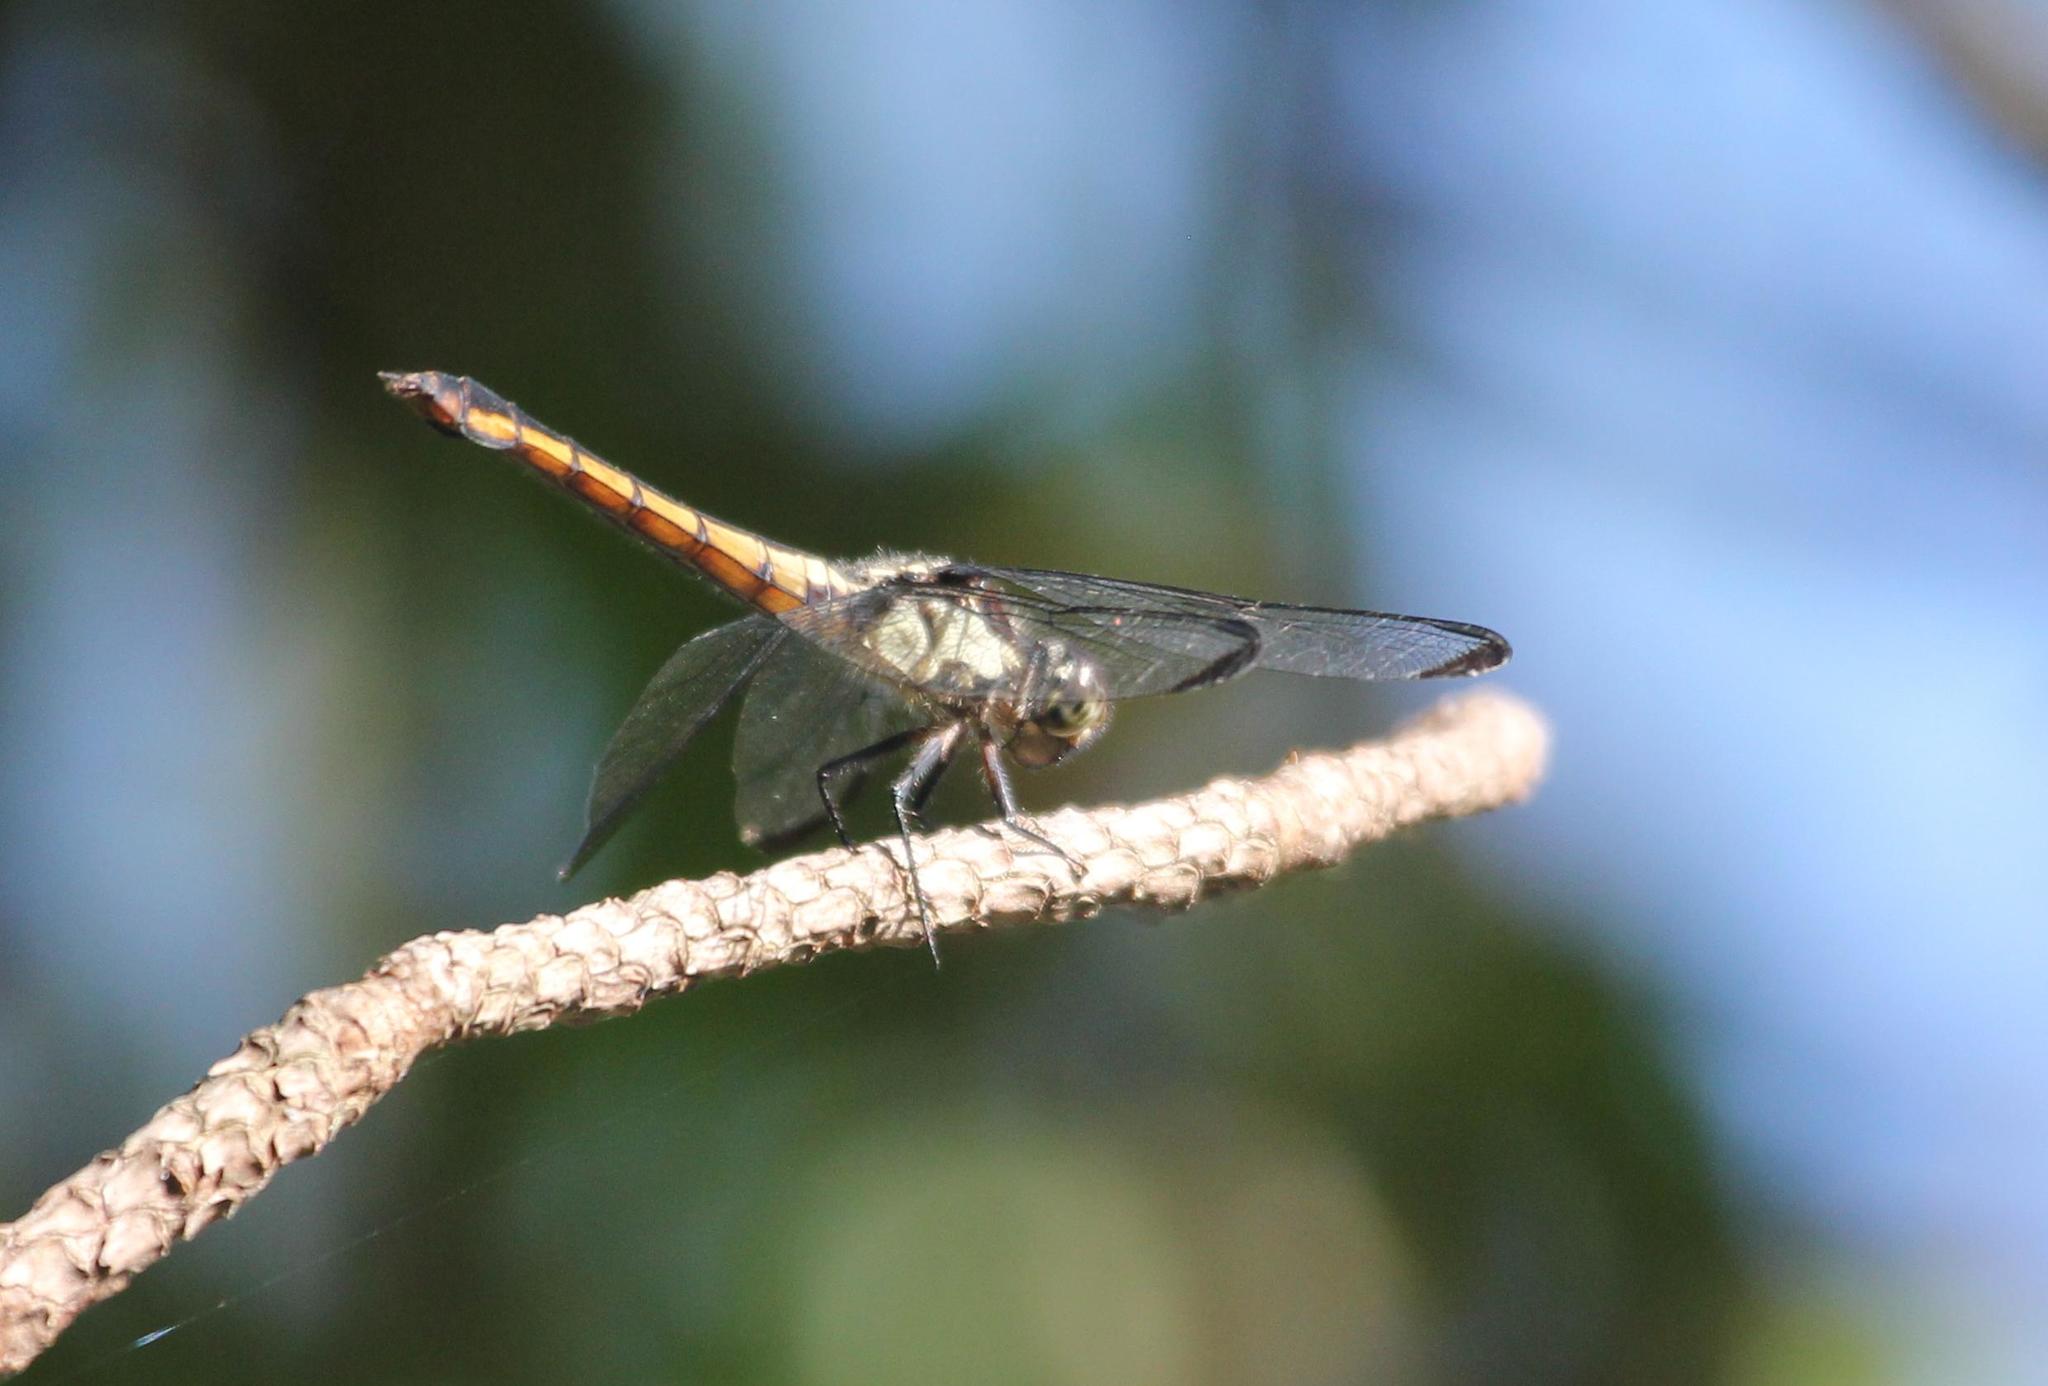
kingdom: Animalia
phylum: Arthropoda
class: Insecta
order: Odonata
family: Libellulidae
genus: Libellula
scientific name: Libellula incesta
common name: Slaty skimmer
